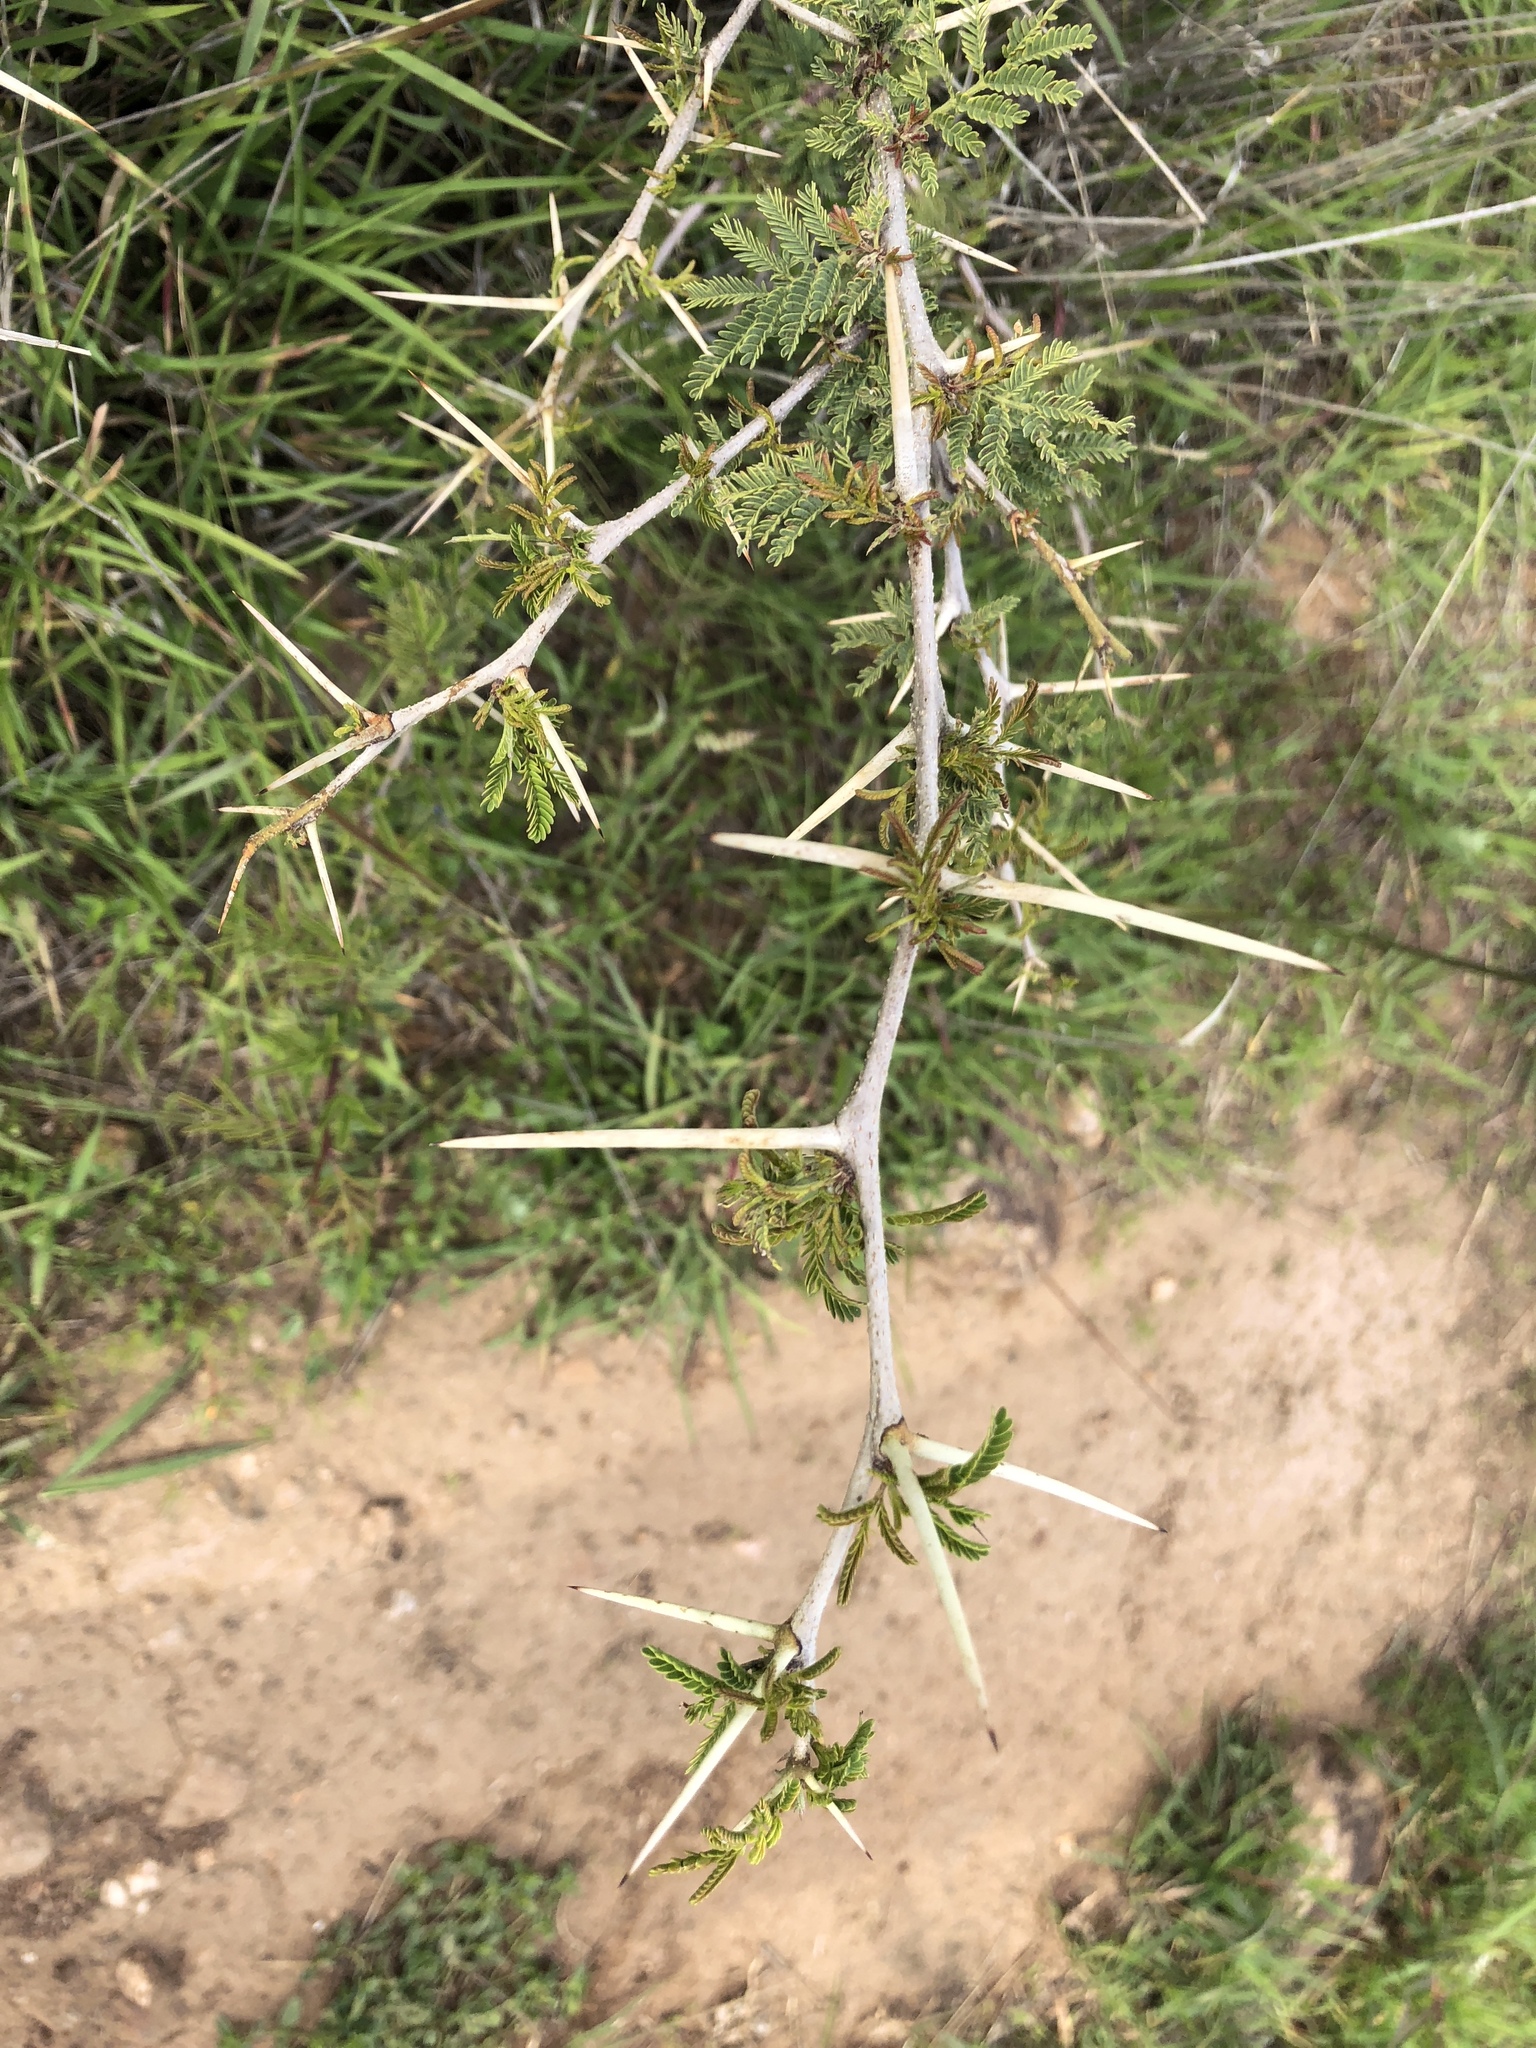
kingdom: Plantae
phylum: Tracheophyta
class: Magnoliopsida
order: Fabales
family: Fabaceae
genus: Vachellia
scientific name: Vachellia farnesiana
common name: Sweet acacia
